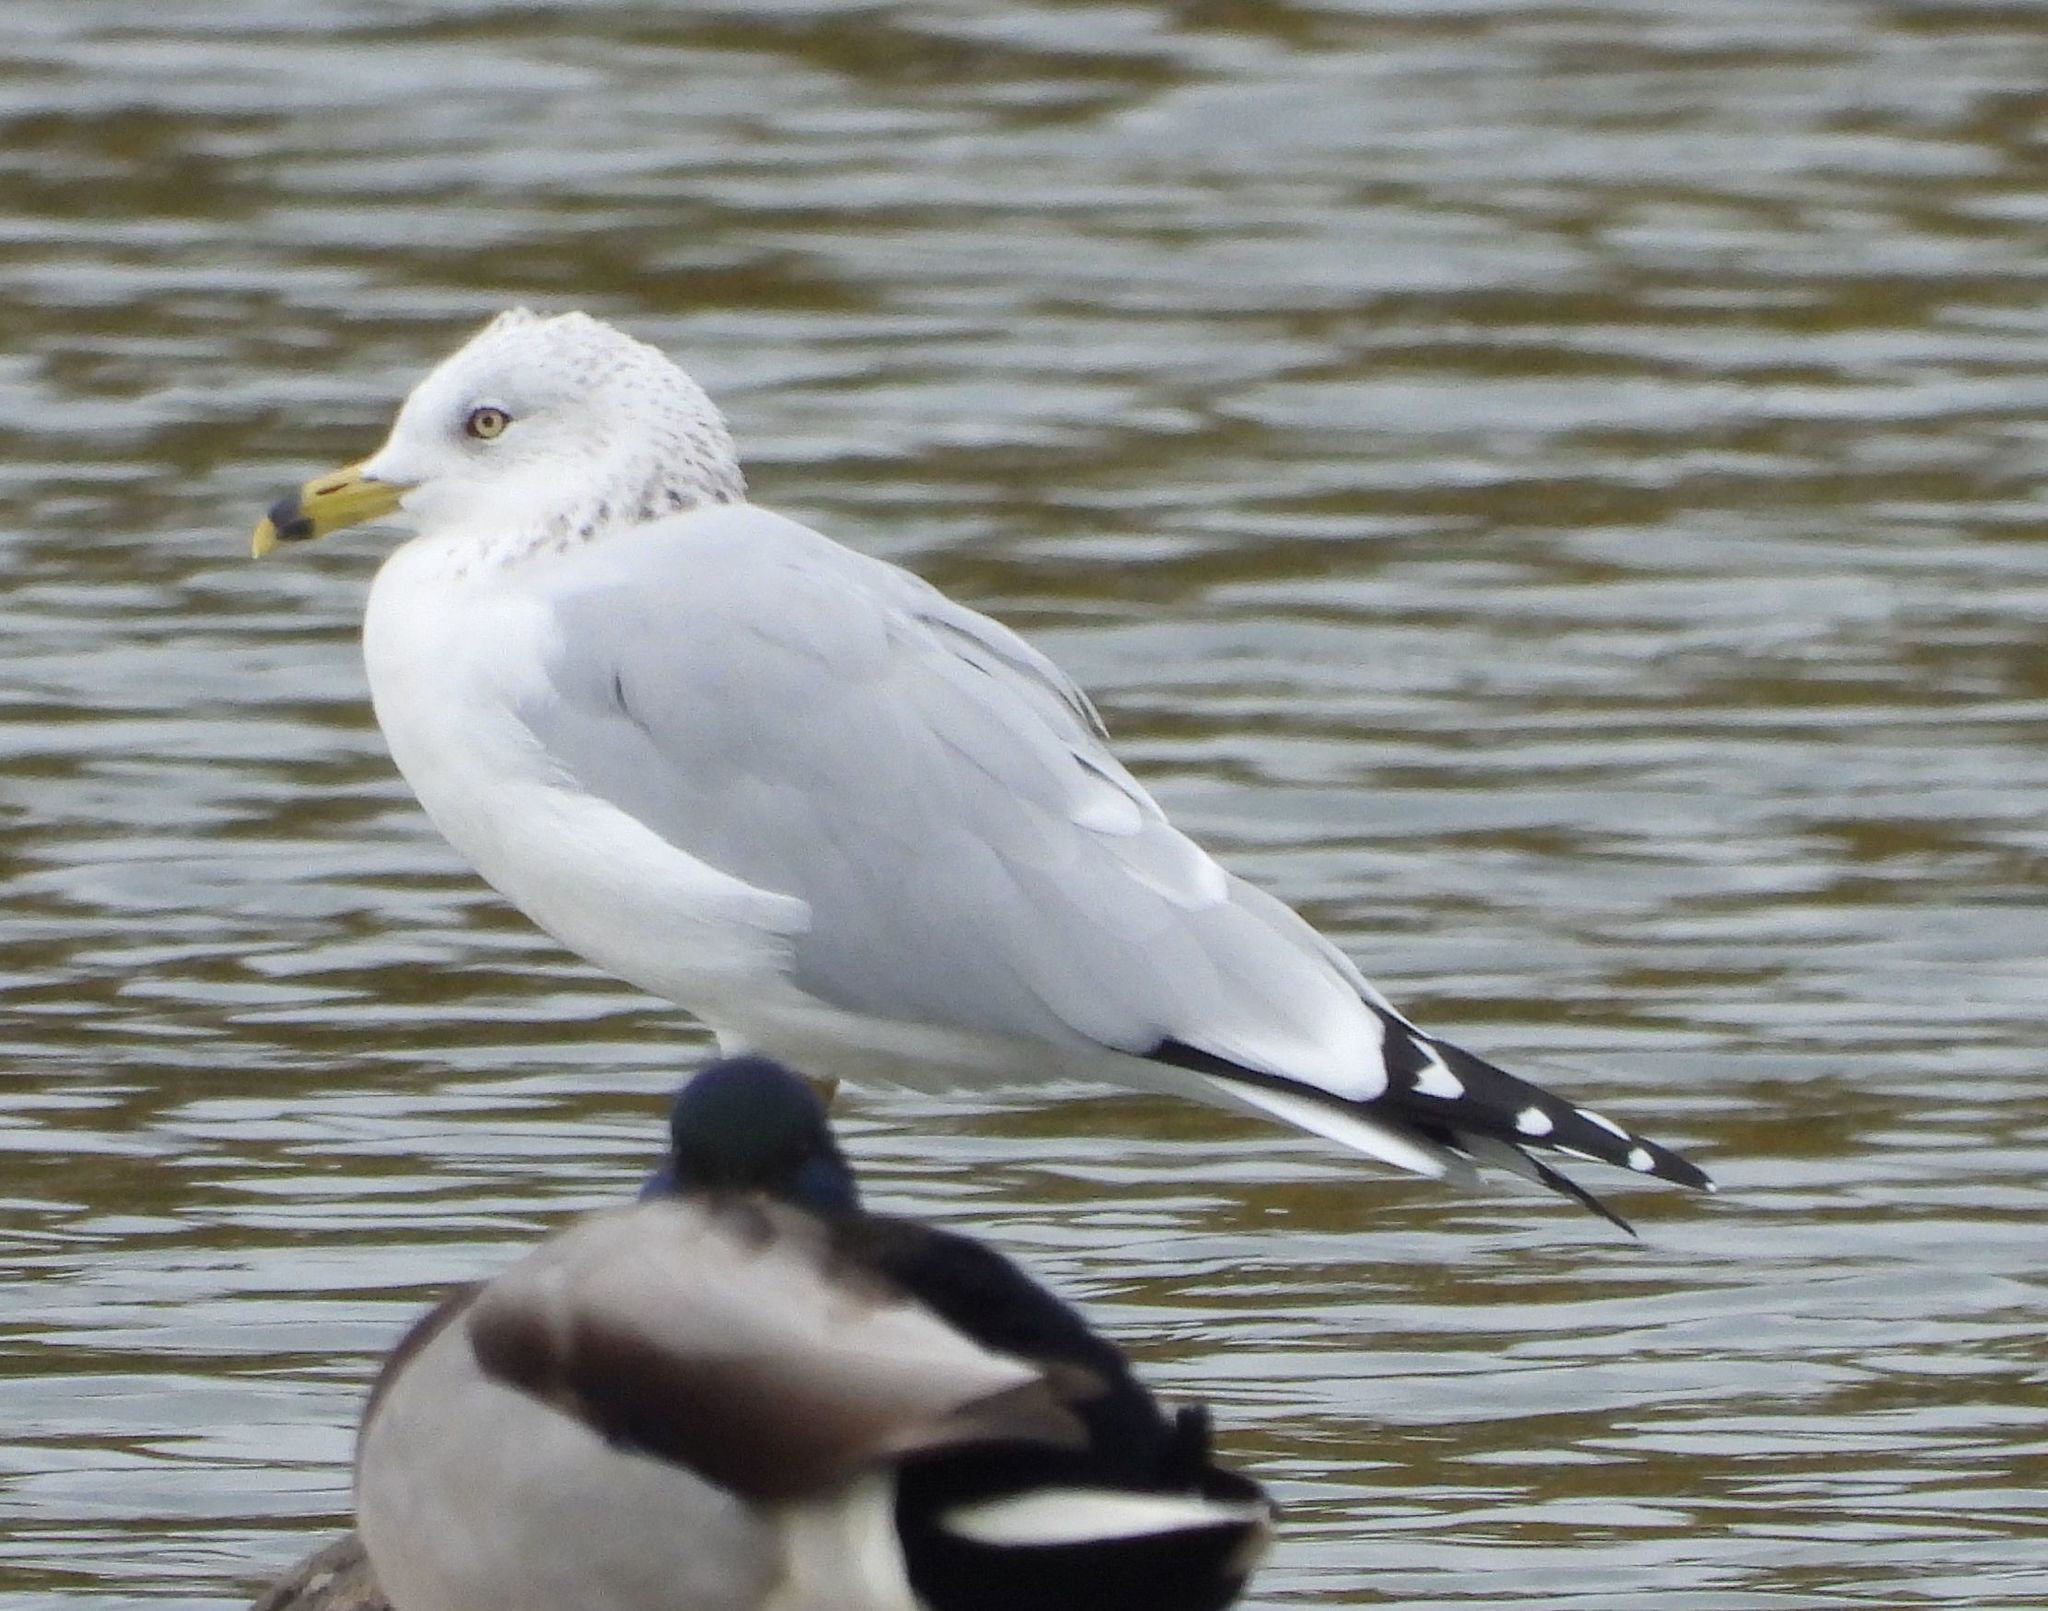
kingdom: Animalia
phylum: Chordata
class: Aves
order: Charadriiformes
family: Laridae
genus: Larus
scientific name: Larus delawarensis
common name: Ring-billed gull
